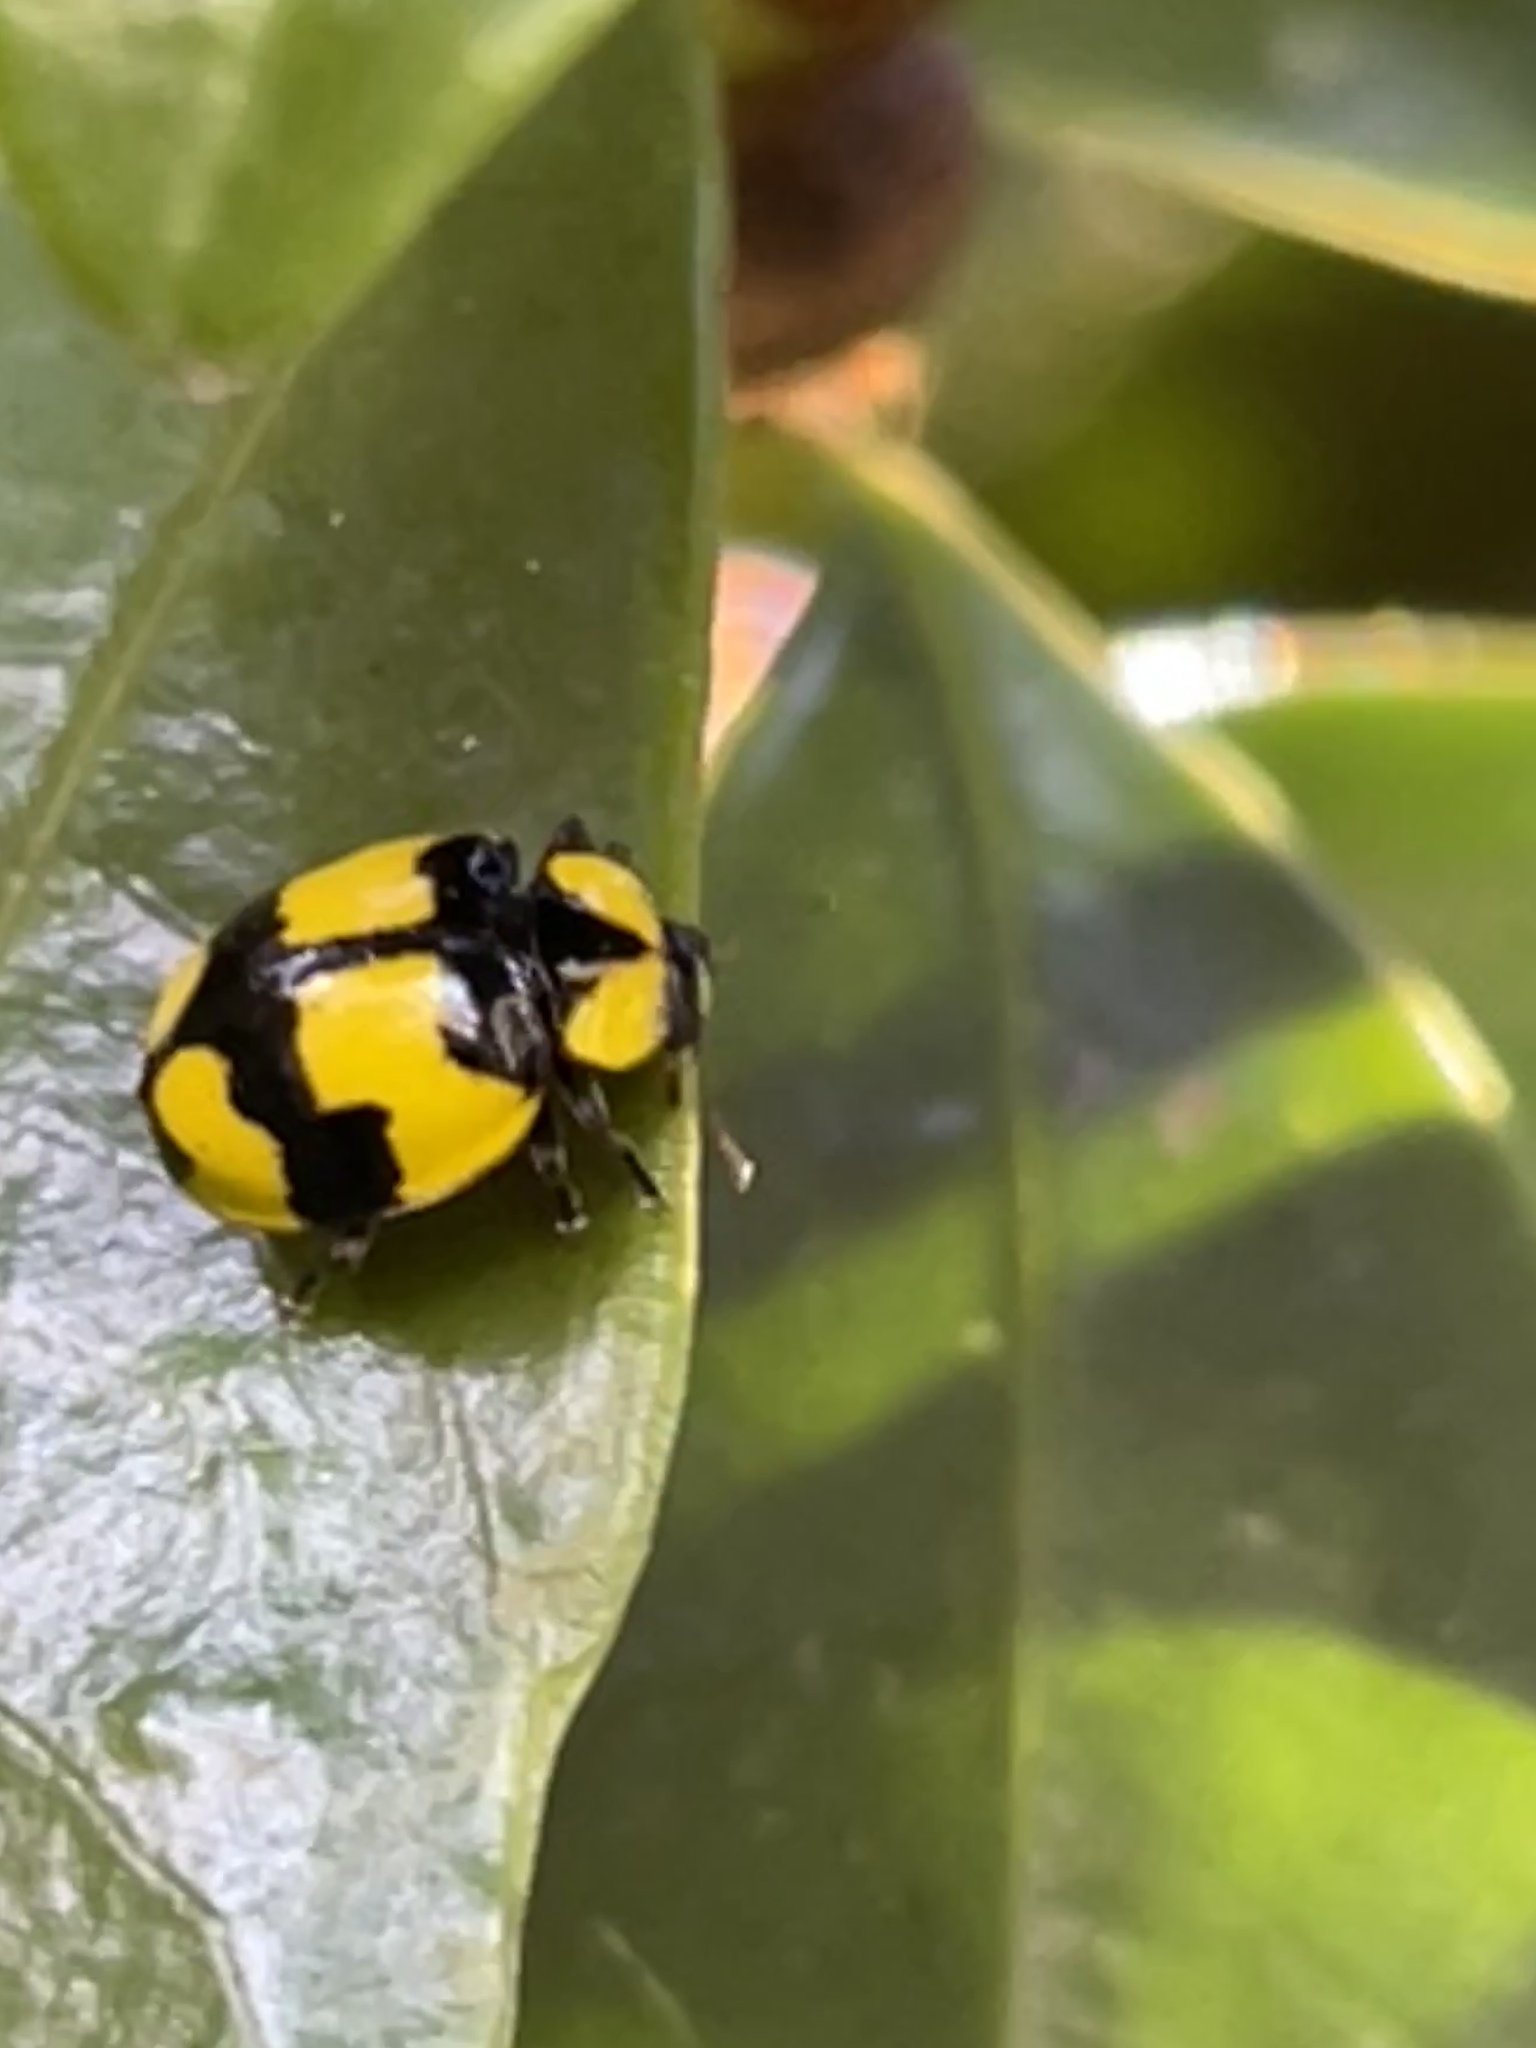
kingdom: Animalia
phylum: Arthropoda
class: Insecta
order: Coleoptera
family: Coccinellidae
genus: Illeis
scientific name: Illeis galbula
